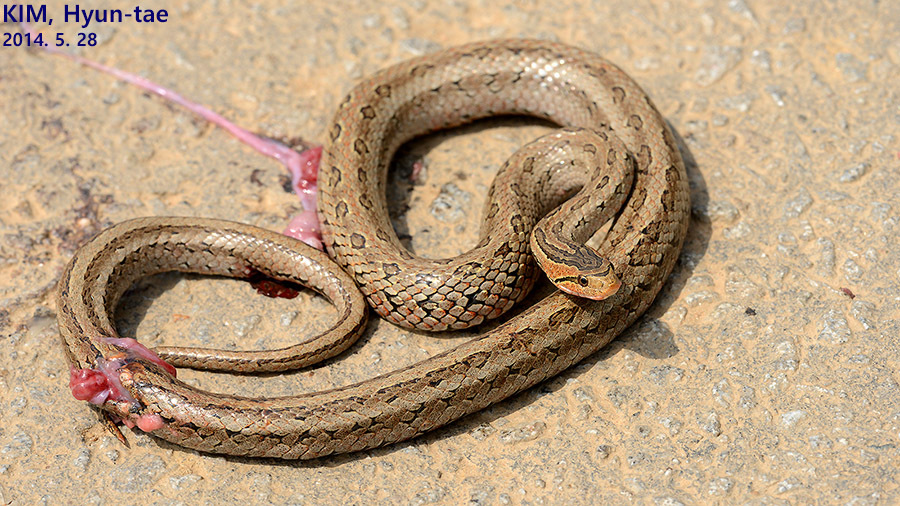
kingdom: Animalia
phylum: Chordata
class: Squamata
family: Colubridae
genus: Oocatochus
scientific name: Oocatochus rufodorsatus
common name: Frog-eating rat snake
